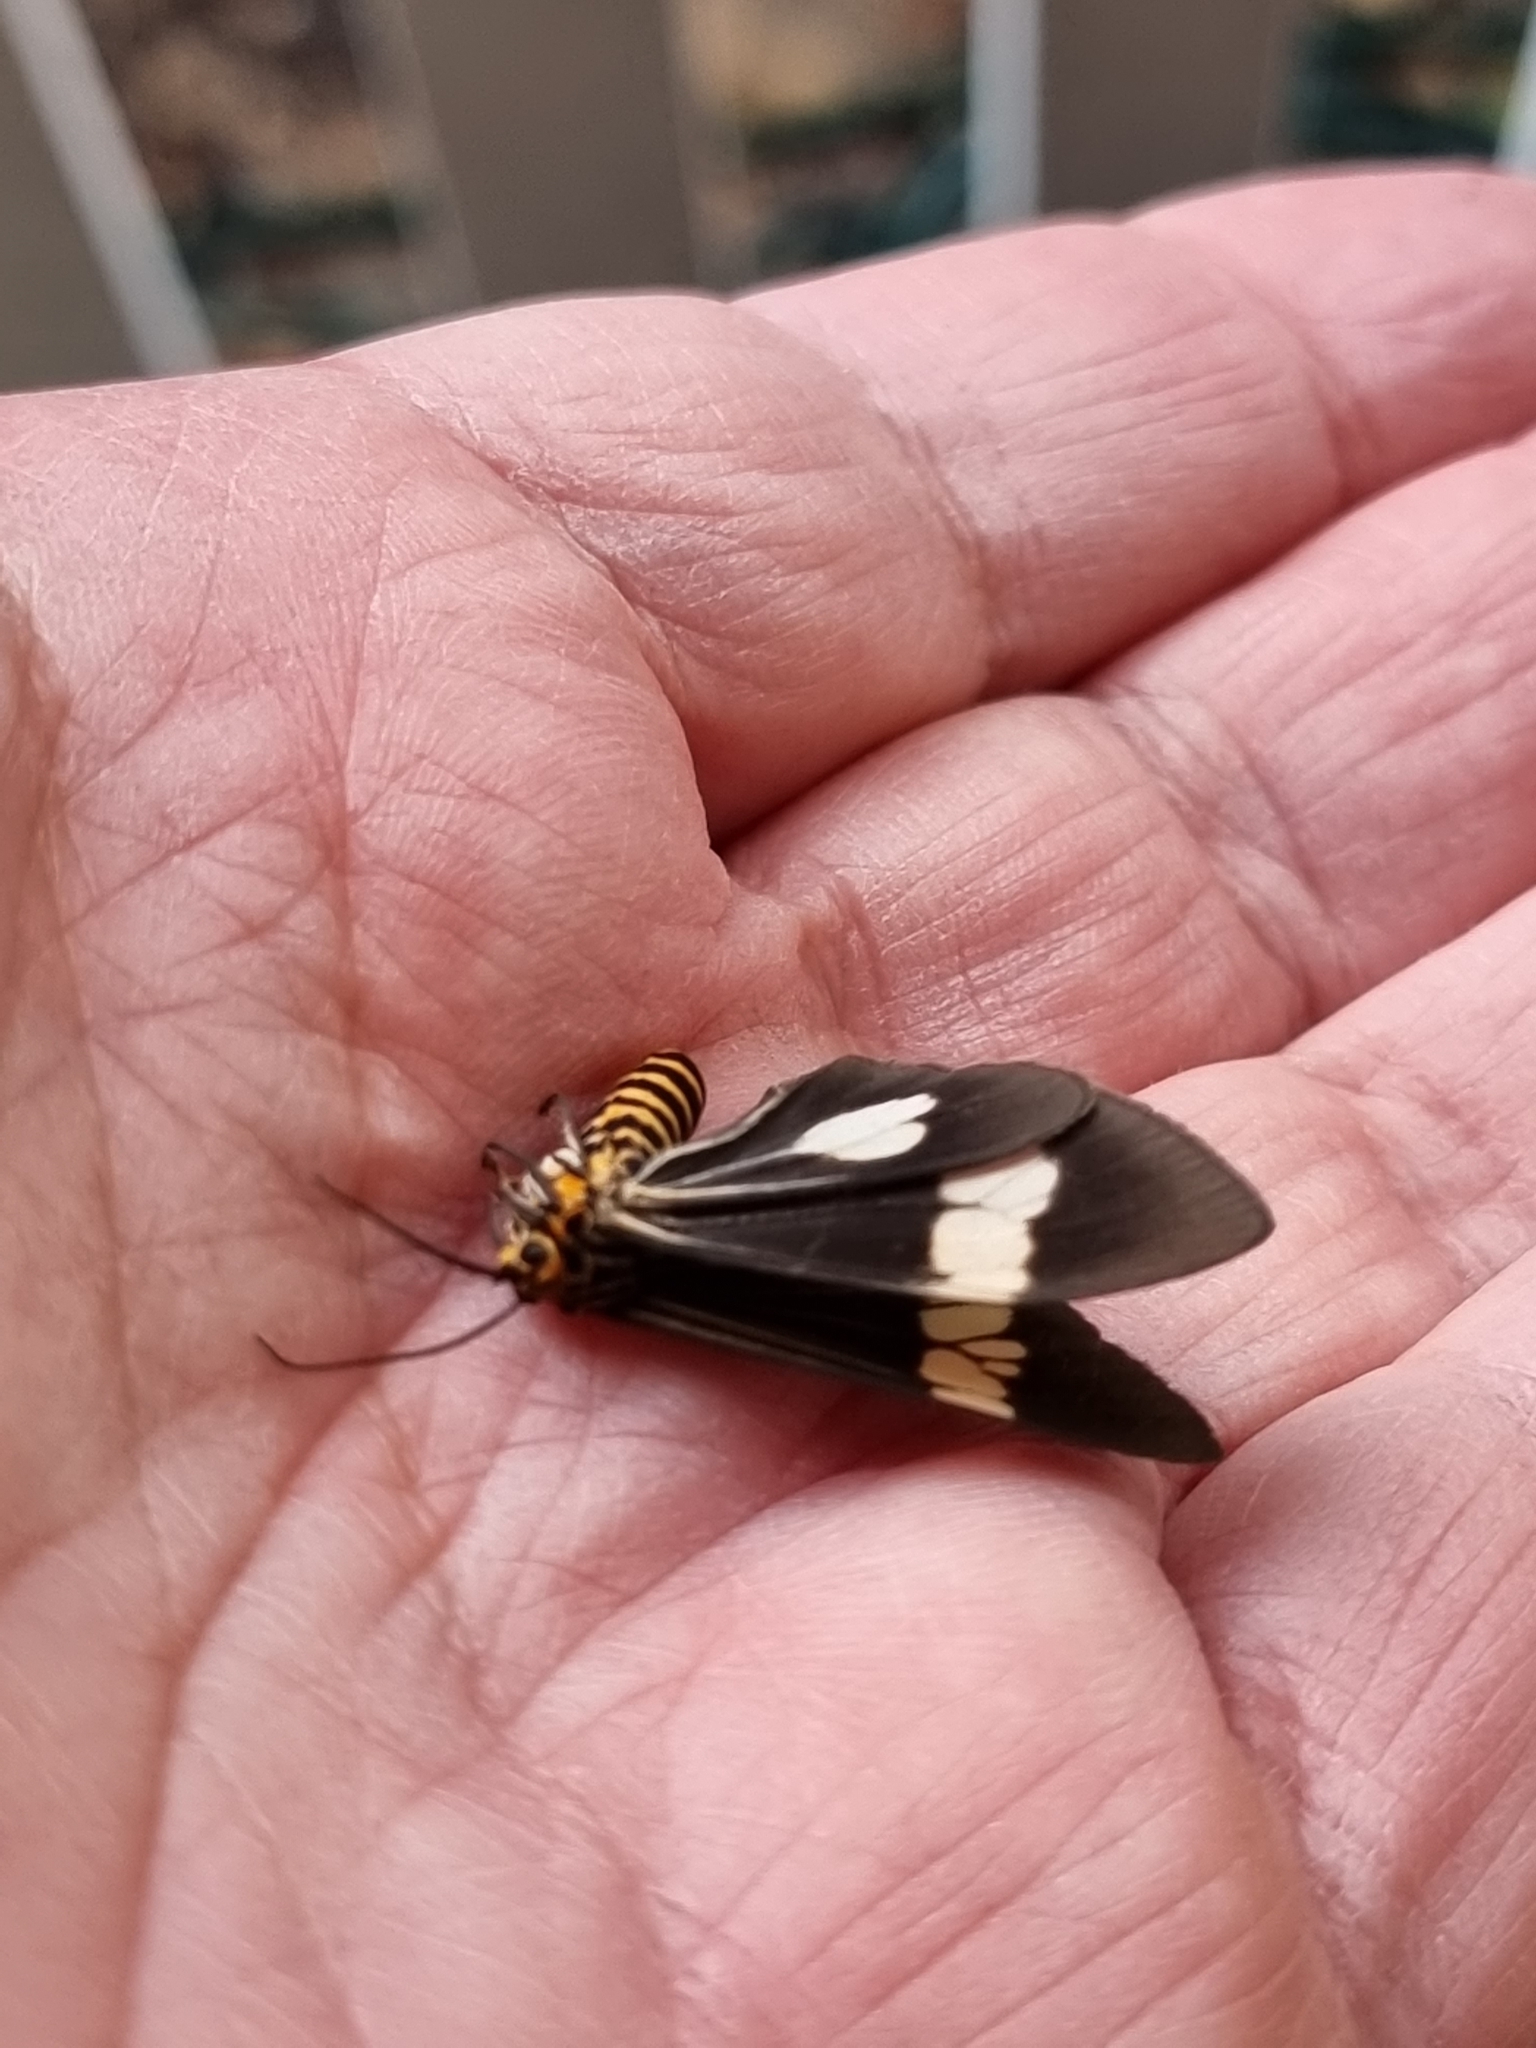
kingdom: Animalia
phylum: Arthropoda
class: Insecta
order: Lepidoptera
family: Erebidae
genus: Nyctemera
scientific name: Nyctemera baulus
